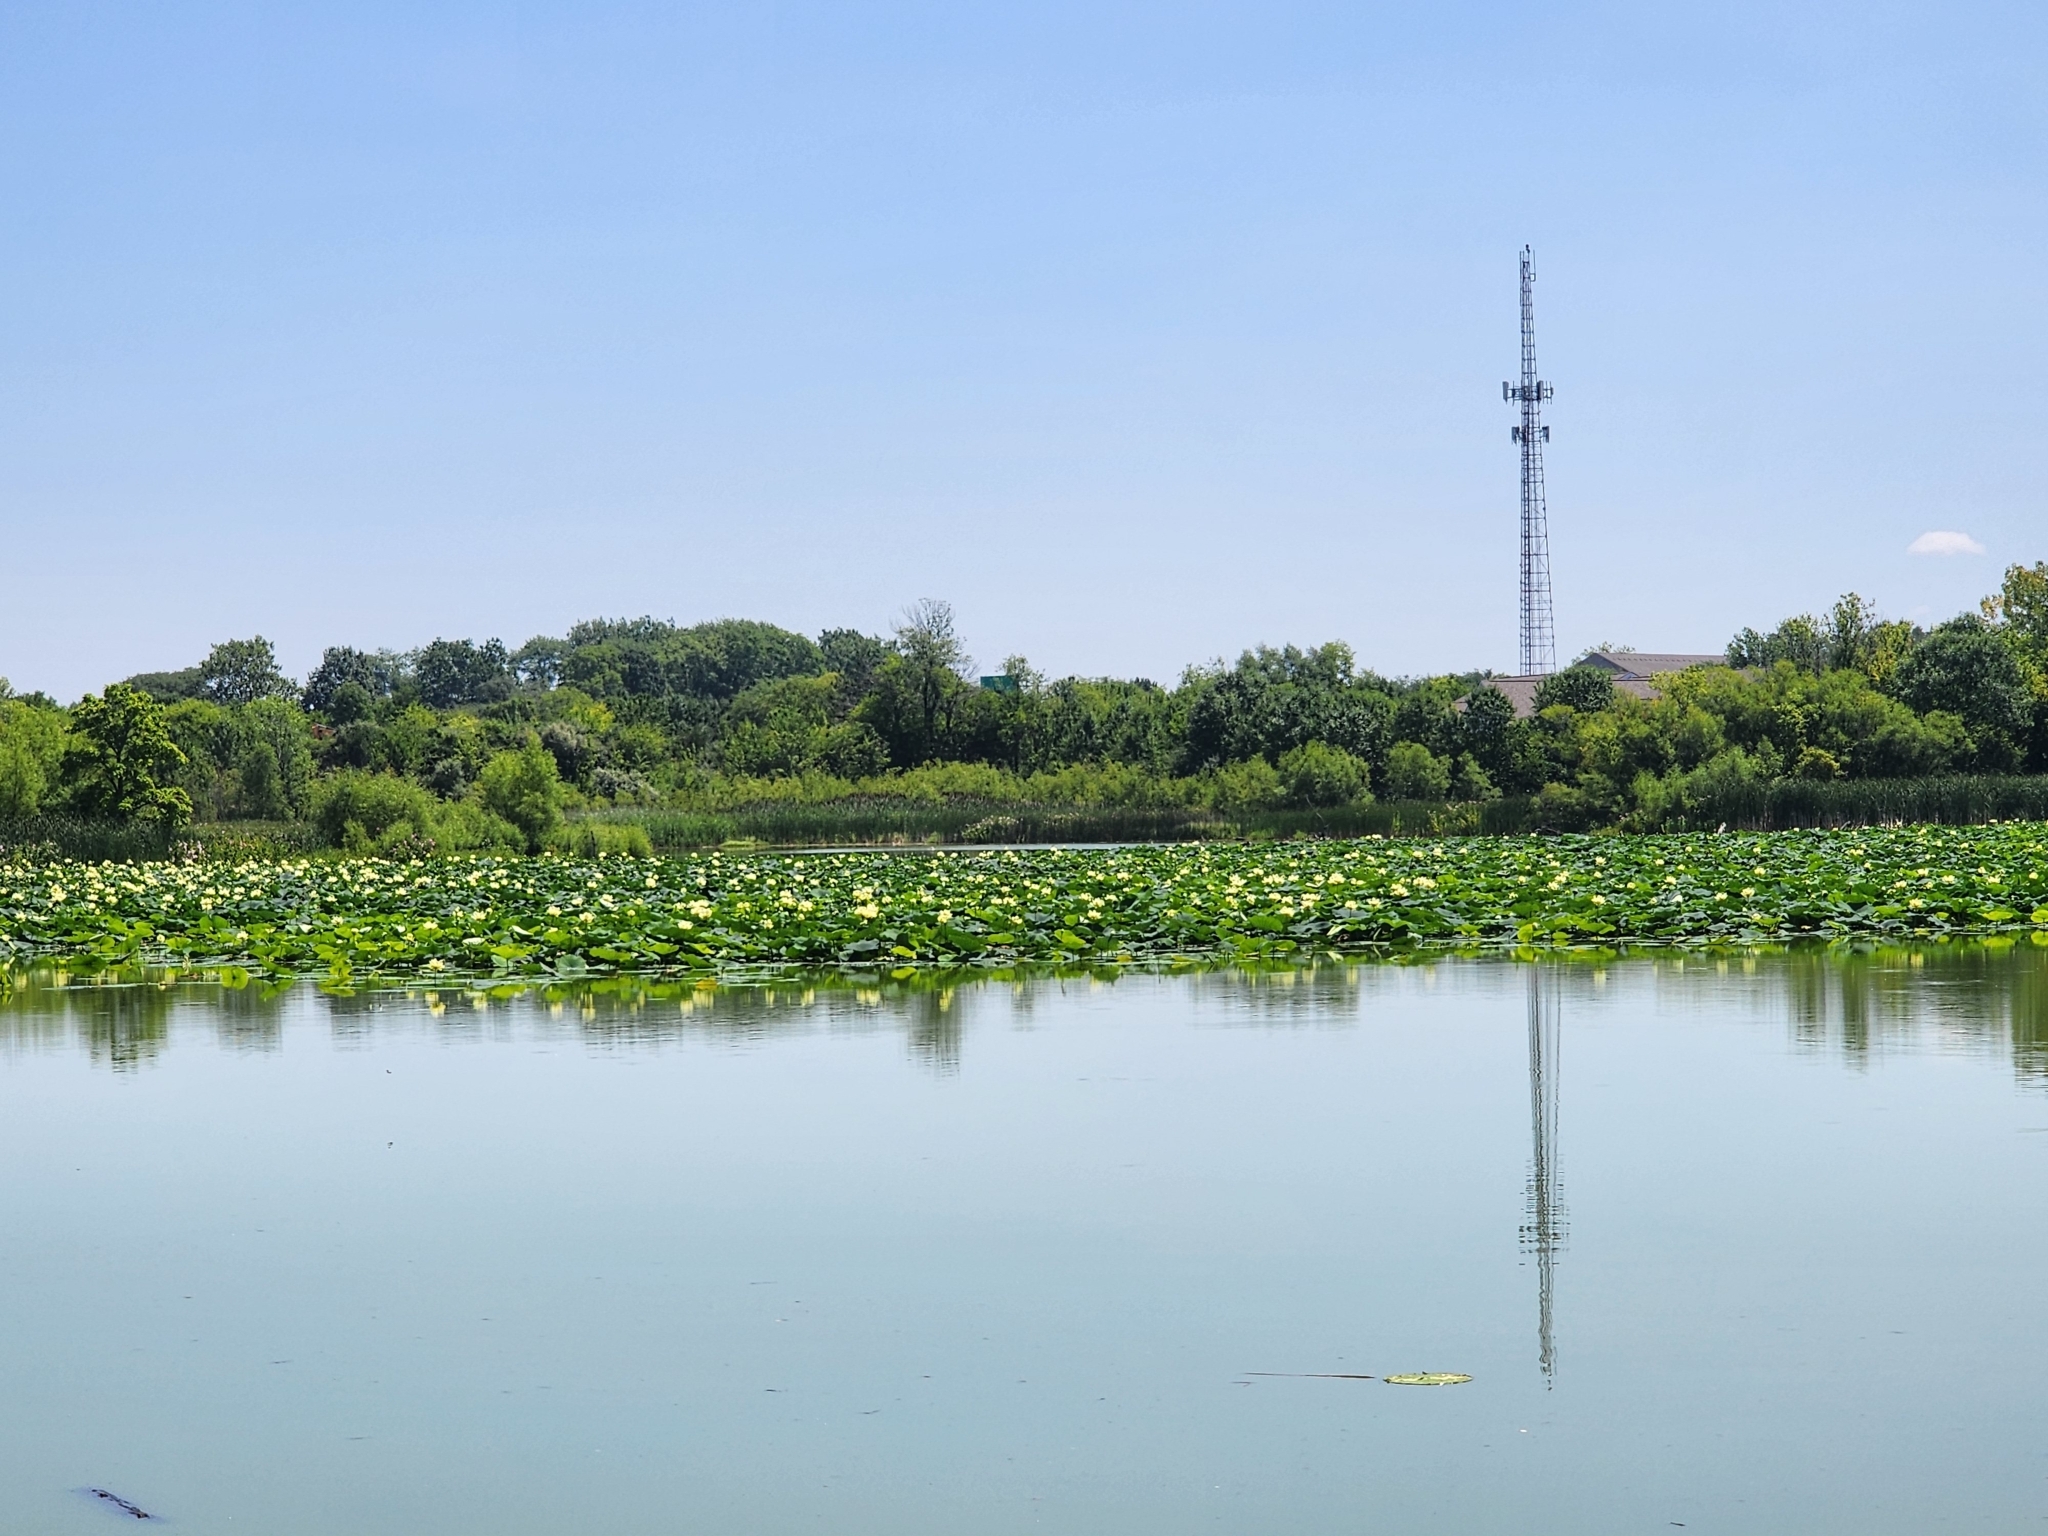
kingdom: Plantae
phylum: Tracheophyta
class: Magnoliopsida
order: Proteales
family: Nelumbonaceae
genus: Nelumbo
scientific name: Nelumbo lutea
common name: American lotus
